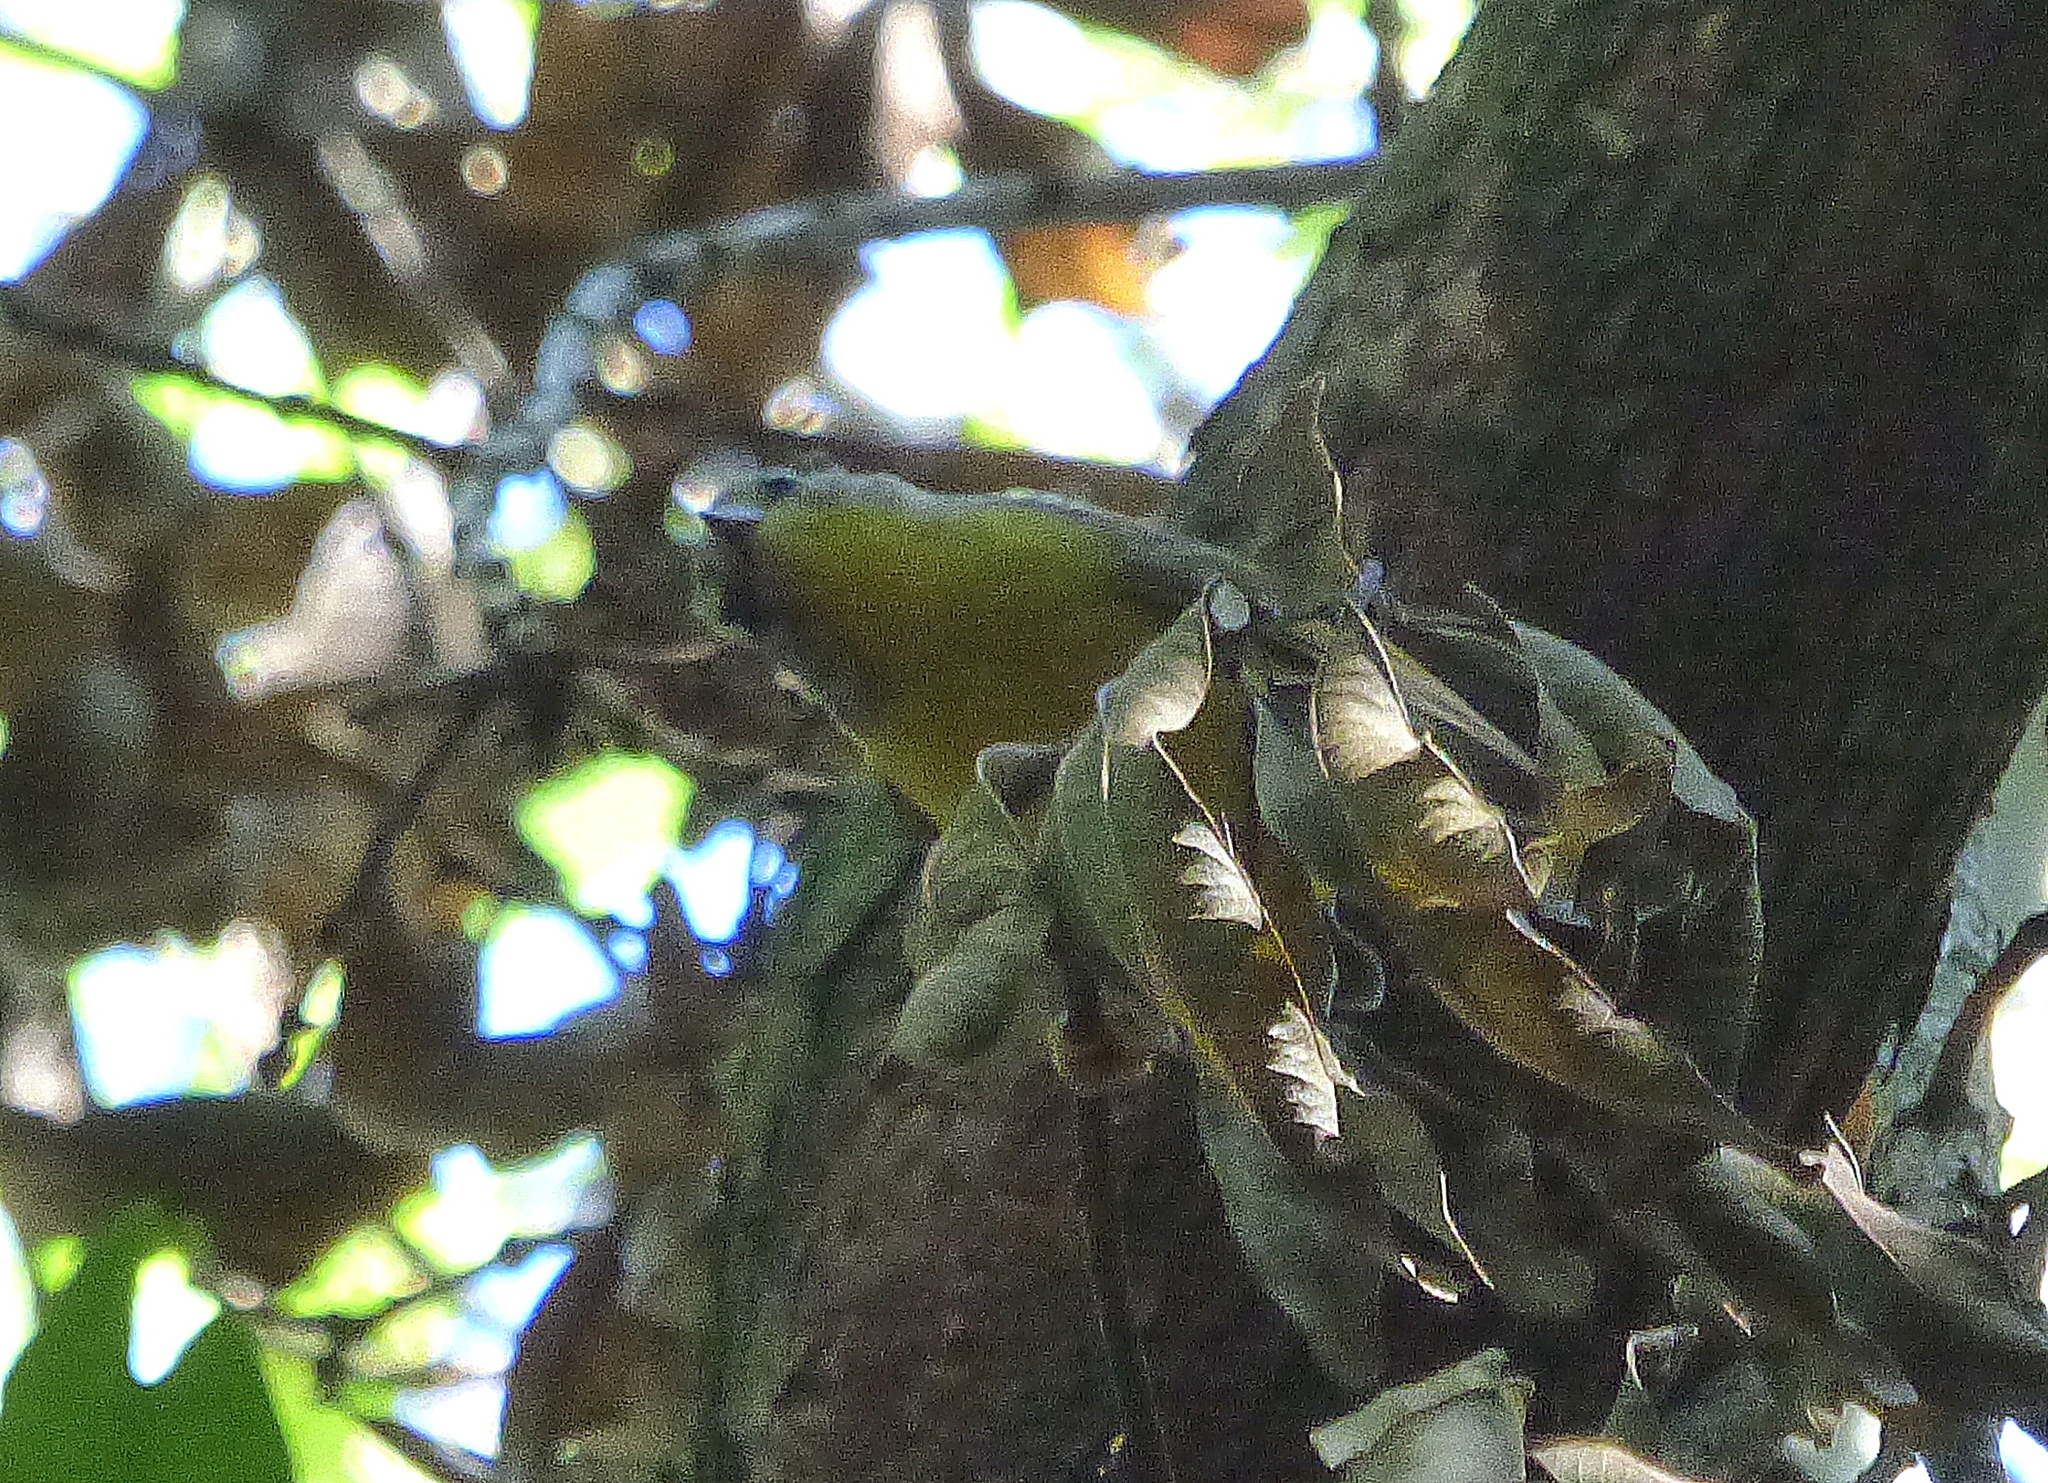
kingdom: Animalia
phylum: Chordata
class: Aves
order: Passeriformes
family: Parulidae
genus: Basileuterus
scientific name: Basileuterus culicivorus
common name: Golden-crowned warbler
